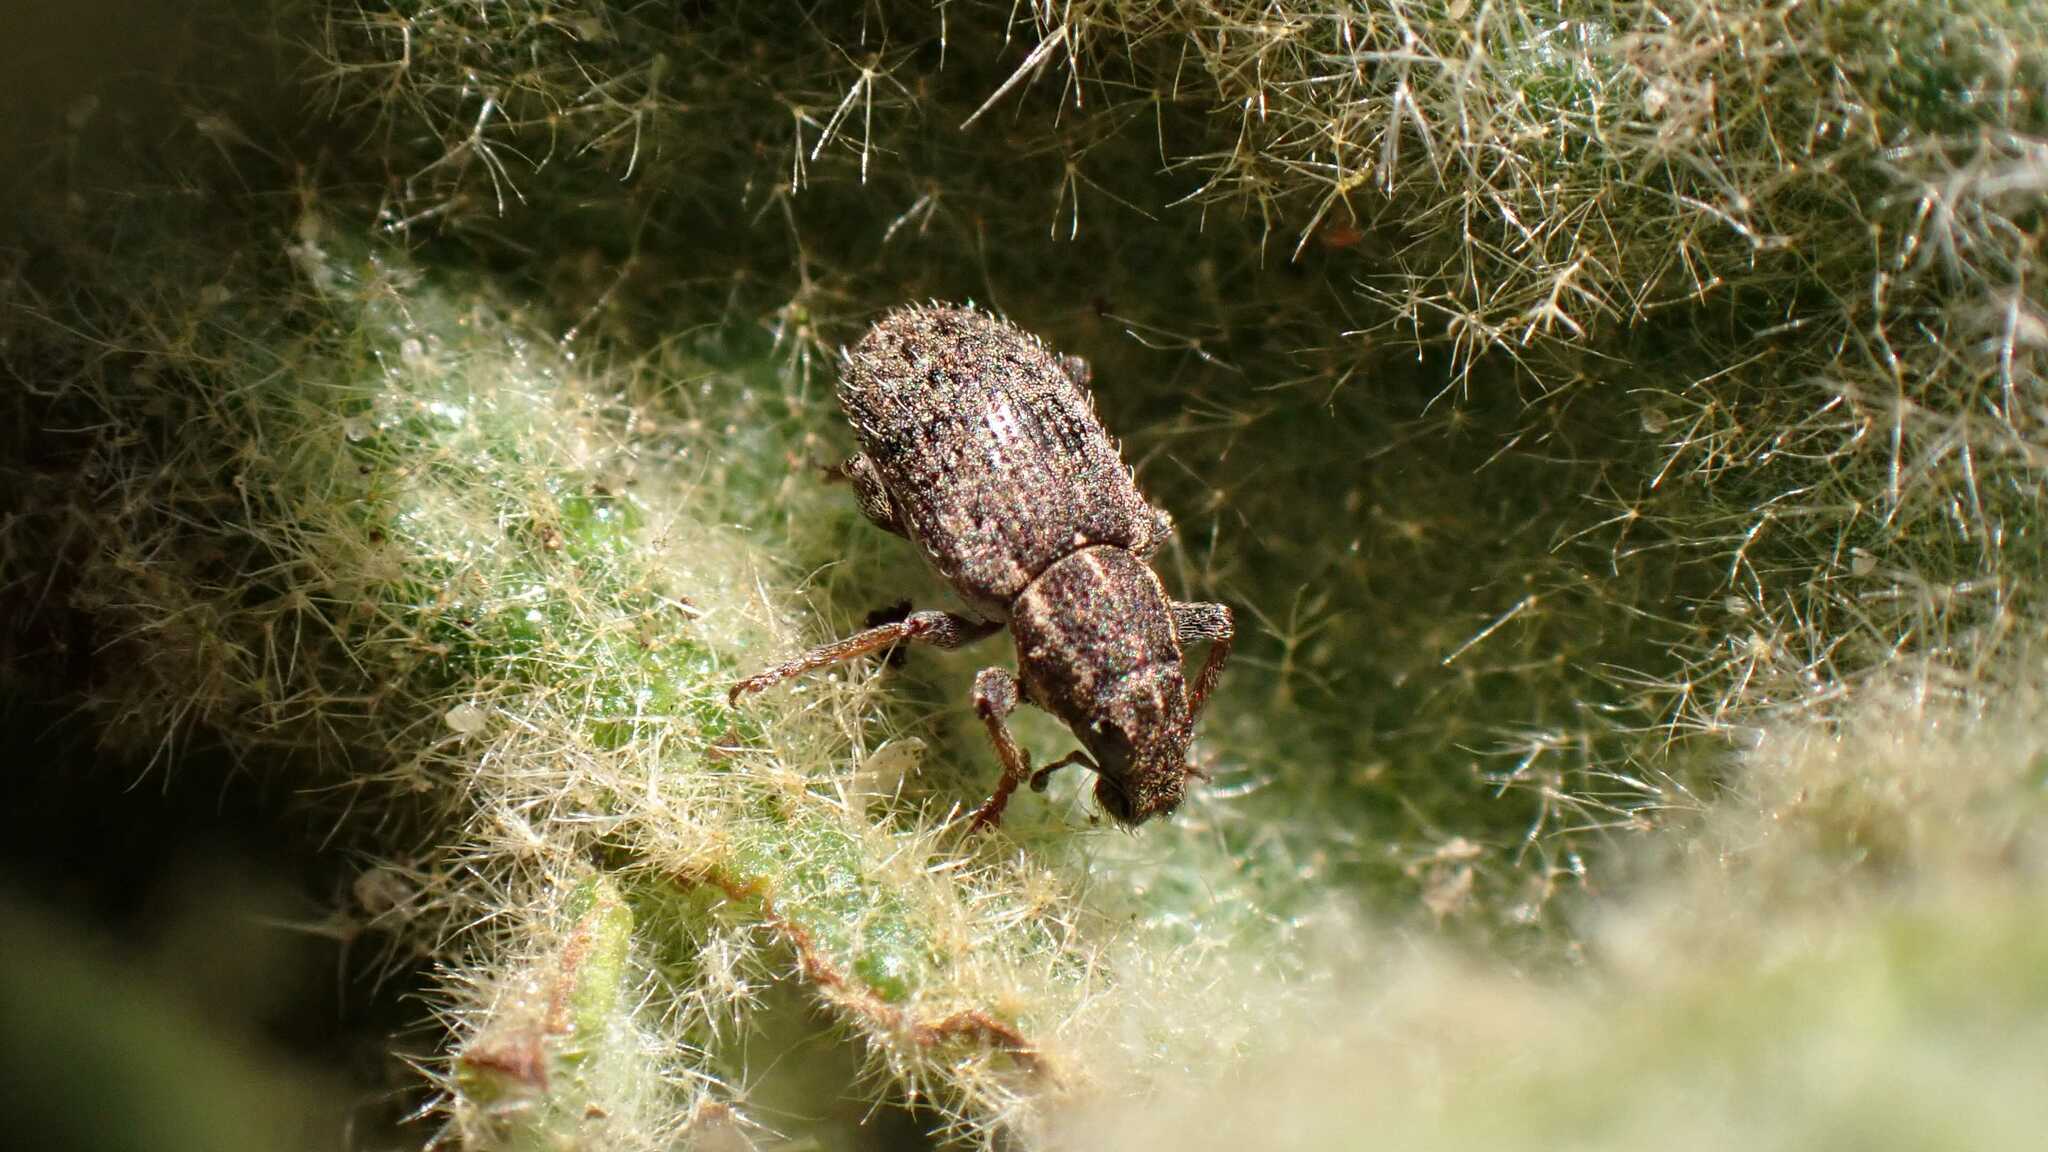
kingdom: Animalia
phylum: Arthropoda
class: Insecta
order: Coleoptera
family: Curculionidae
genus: Sitona
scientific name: Sitona hispidulus
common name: Clover weevil
